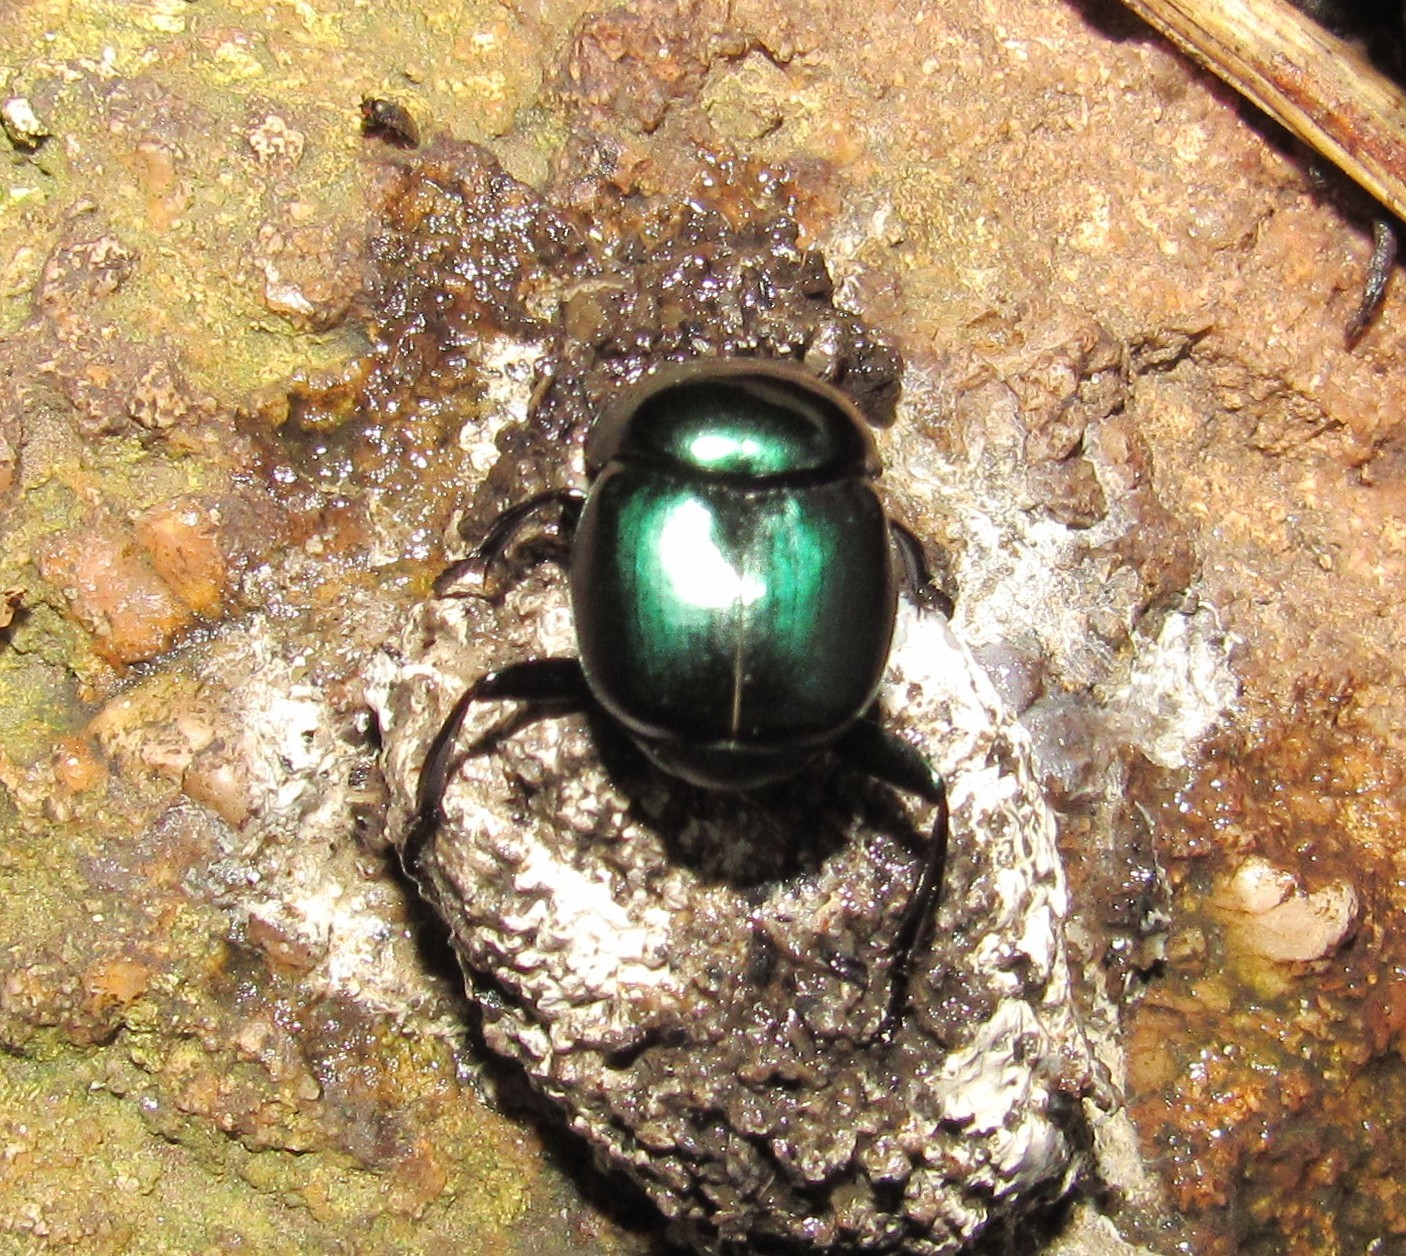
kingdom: Animalia
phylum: Arthropoda
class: Insecta
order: Coleoptera
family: Scarabaeidae
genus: Canthon
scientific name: Canthon rutilans
